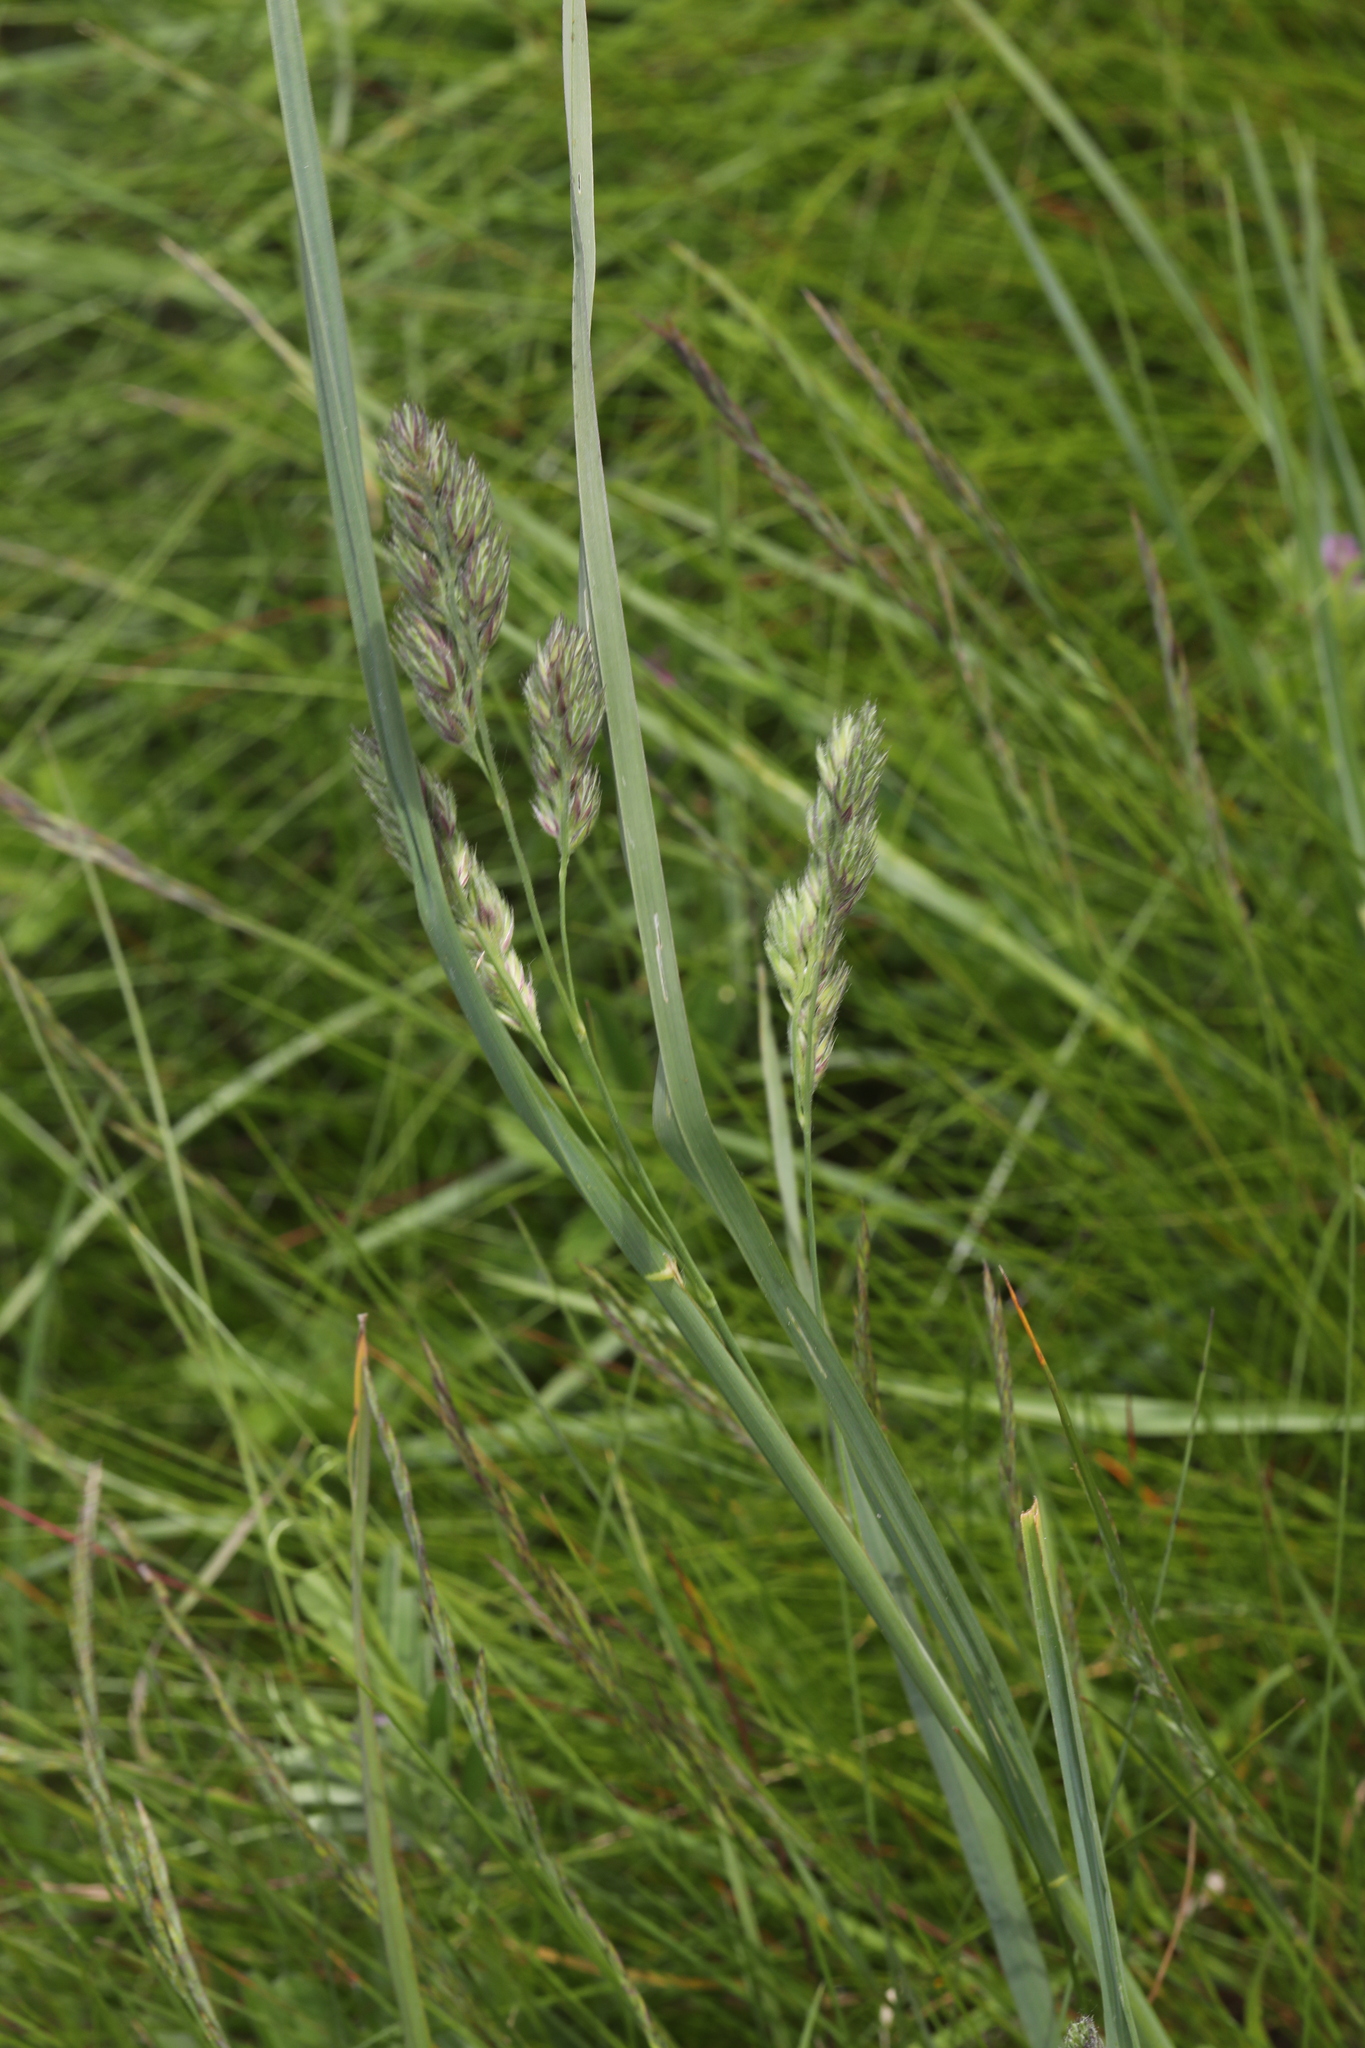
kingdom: Plantae
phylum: Tracheophyta
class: Liliopsida
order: Poales
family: Poaceae
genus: Dactylis
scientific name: Dactylis glomerata
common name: Orchardgrass
